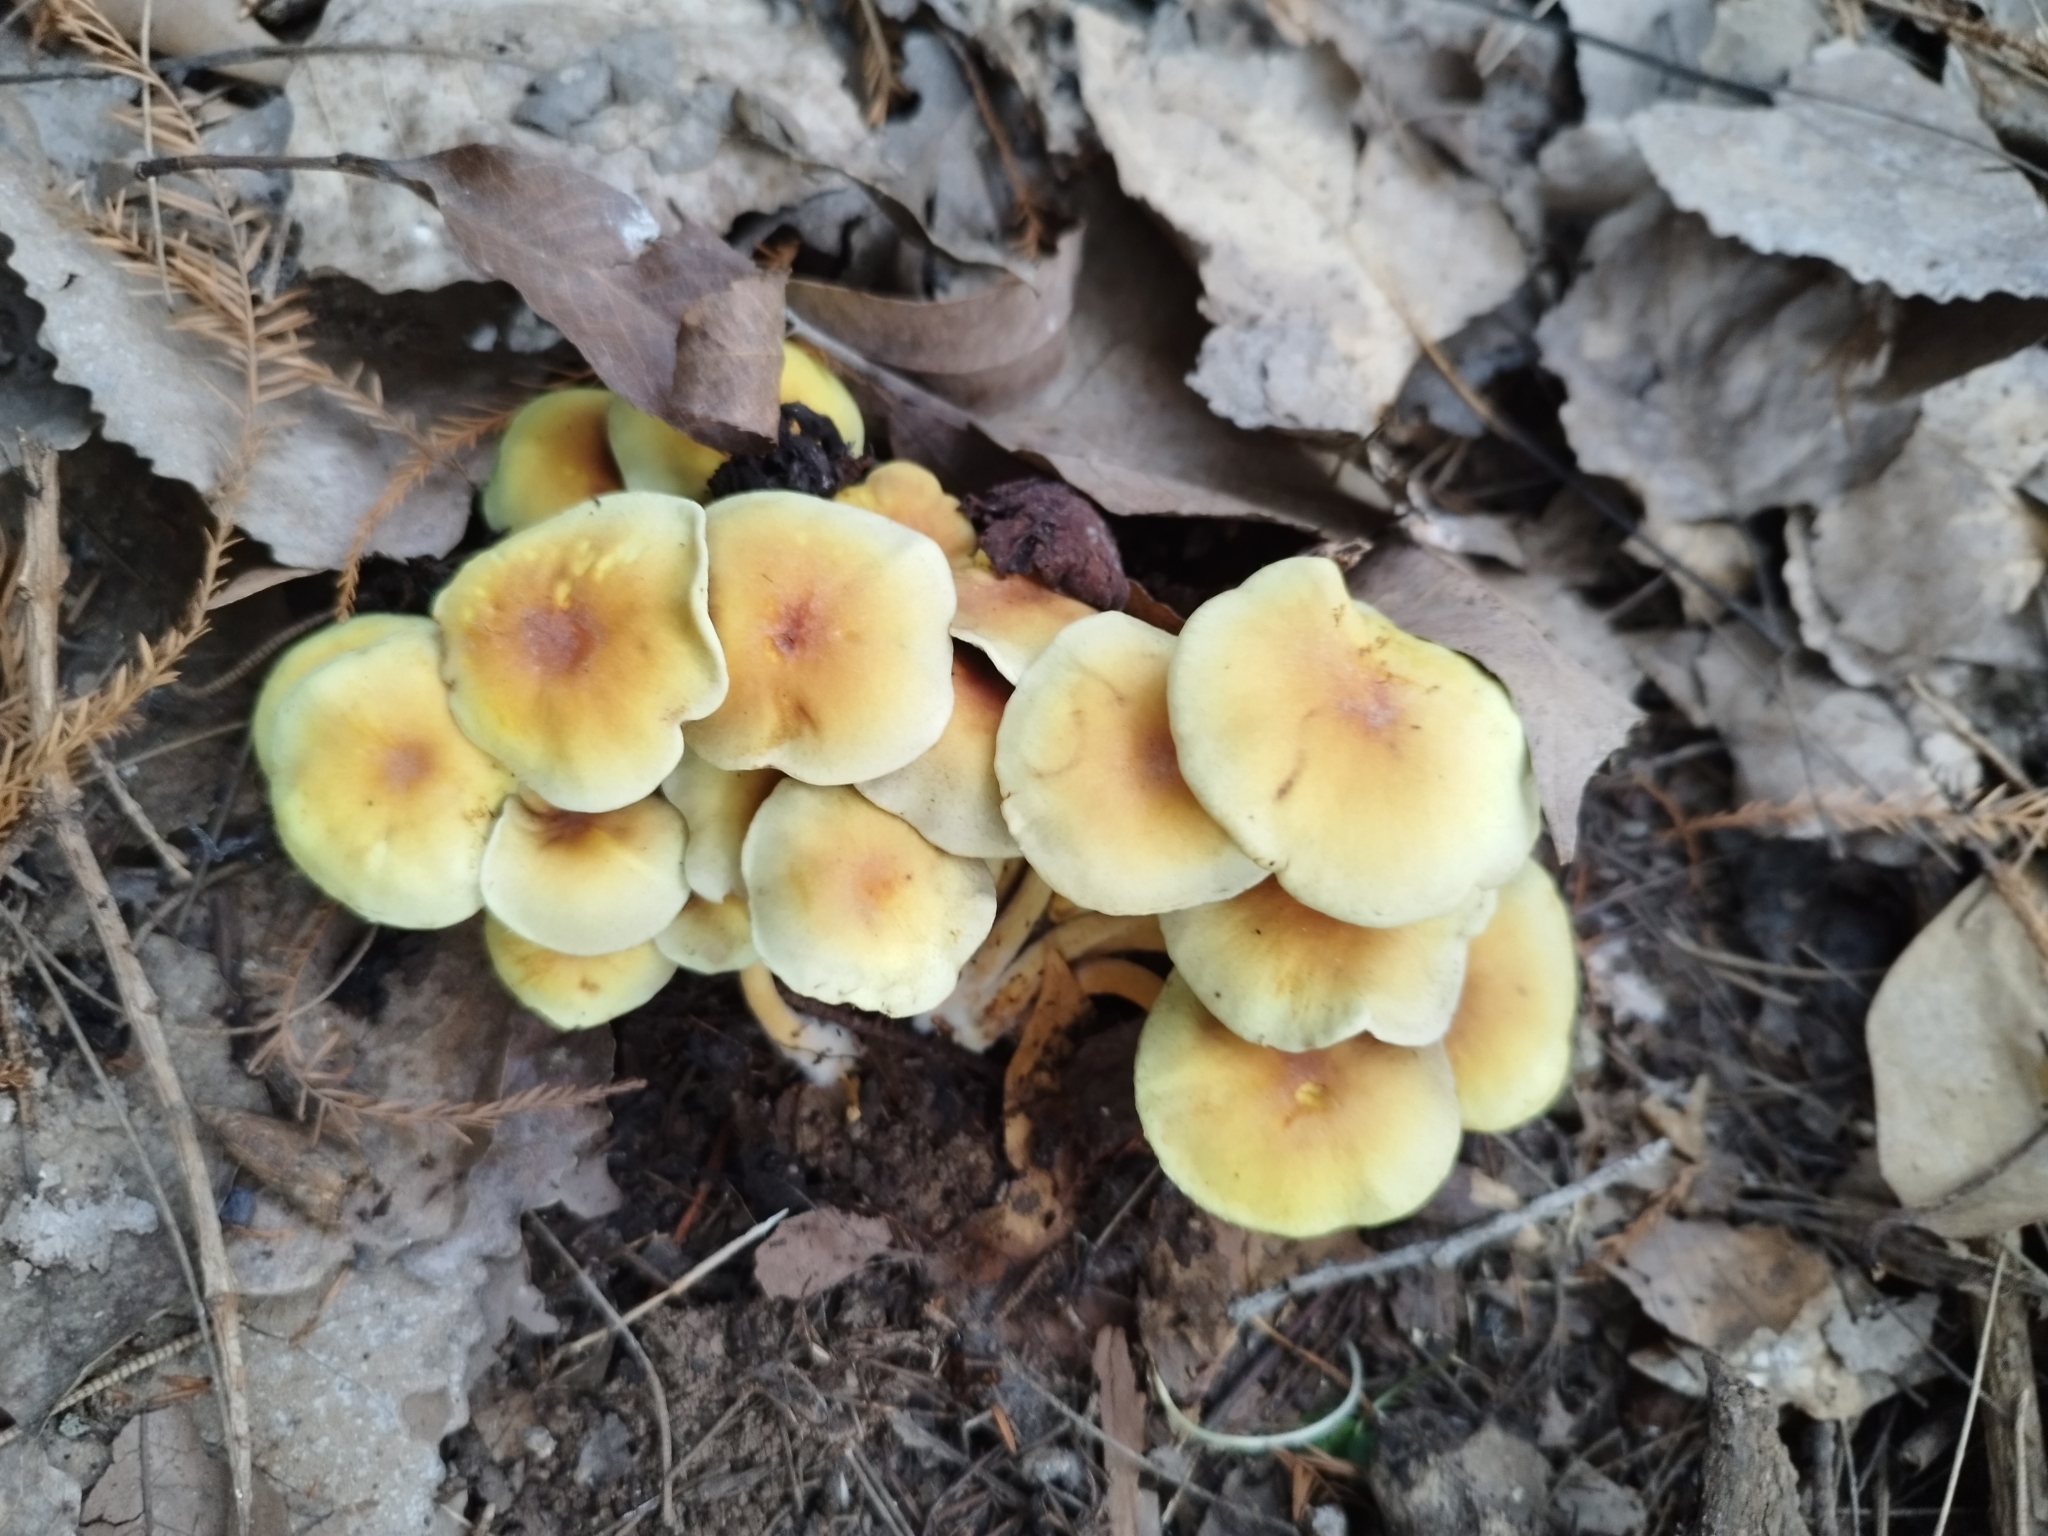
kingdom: Fungi
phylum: Basidiomycota
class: Agaricomycetes
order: Agaricales
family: Strophariaceae
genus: Hypholoma
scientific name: Hypholoma fasciculare
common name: Sulphur tuft
